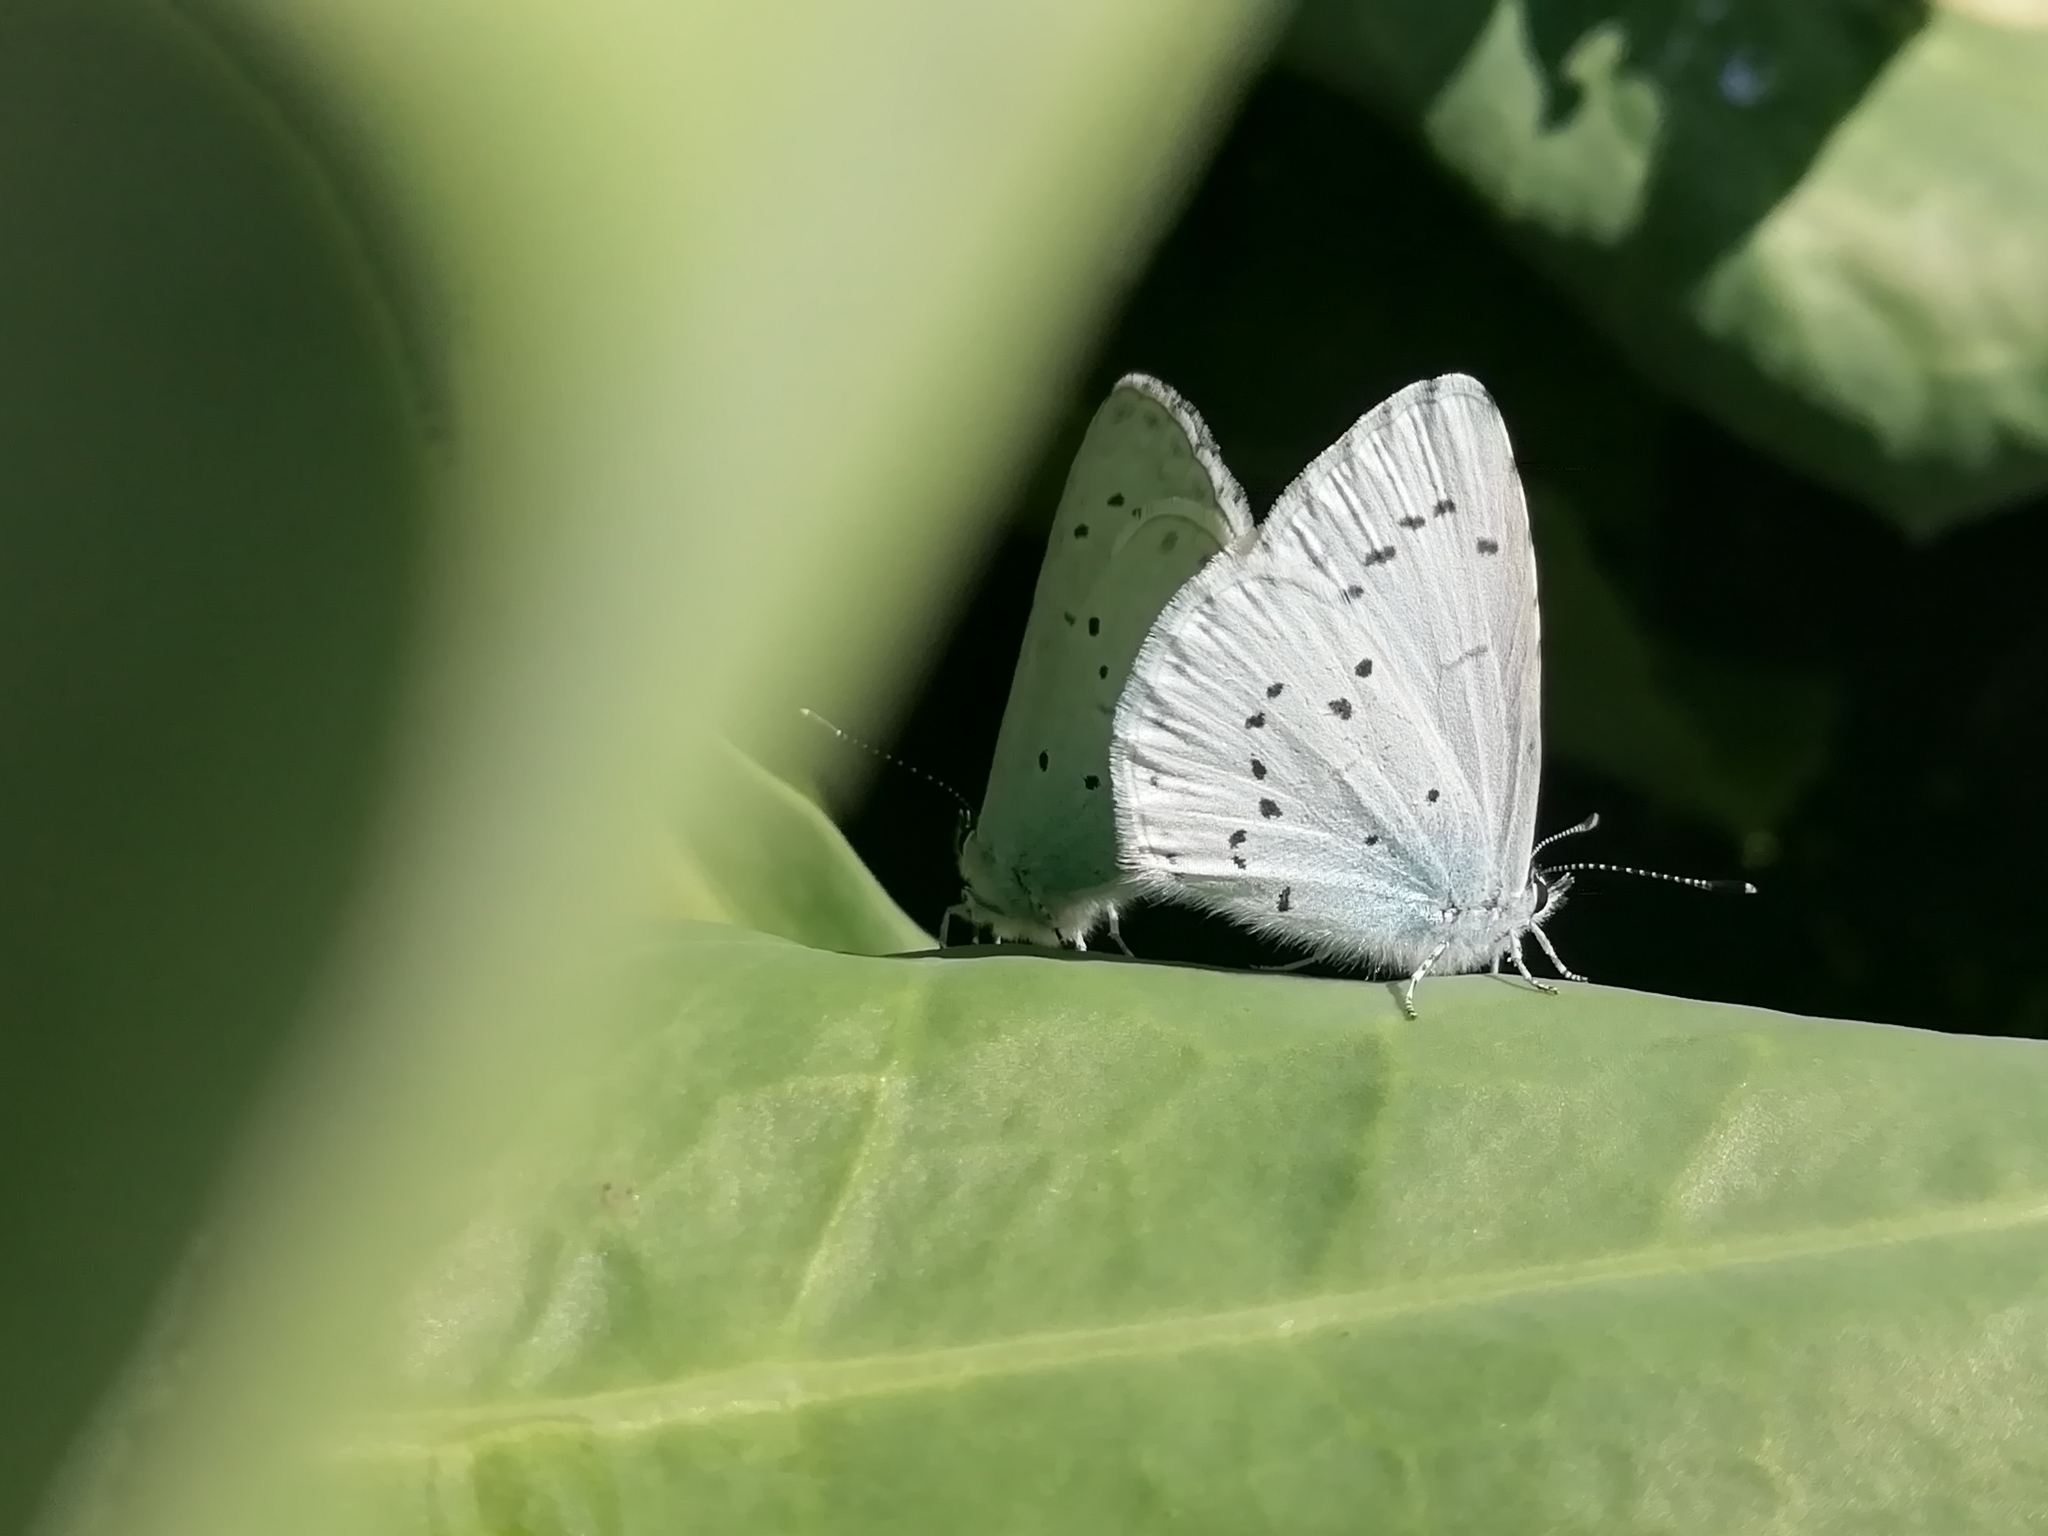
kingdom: Animalia
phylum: Arthropoda
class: Insecta
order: Lepidoptera
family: Lycaenidae
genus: Celastrina
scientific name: Celastrina argiolus
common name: Holly blue
